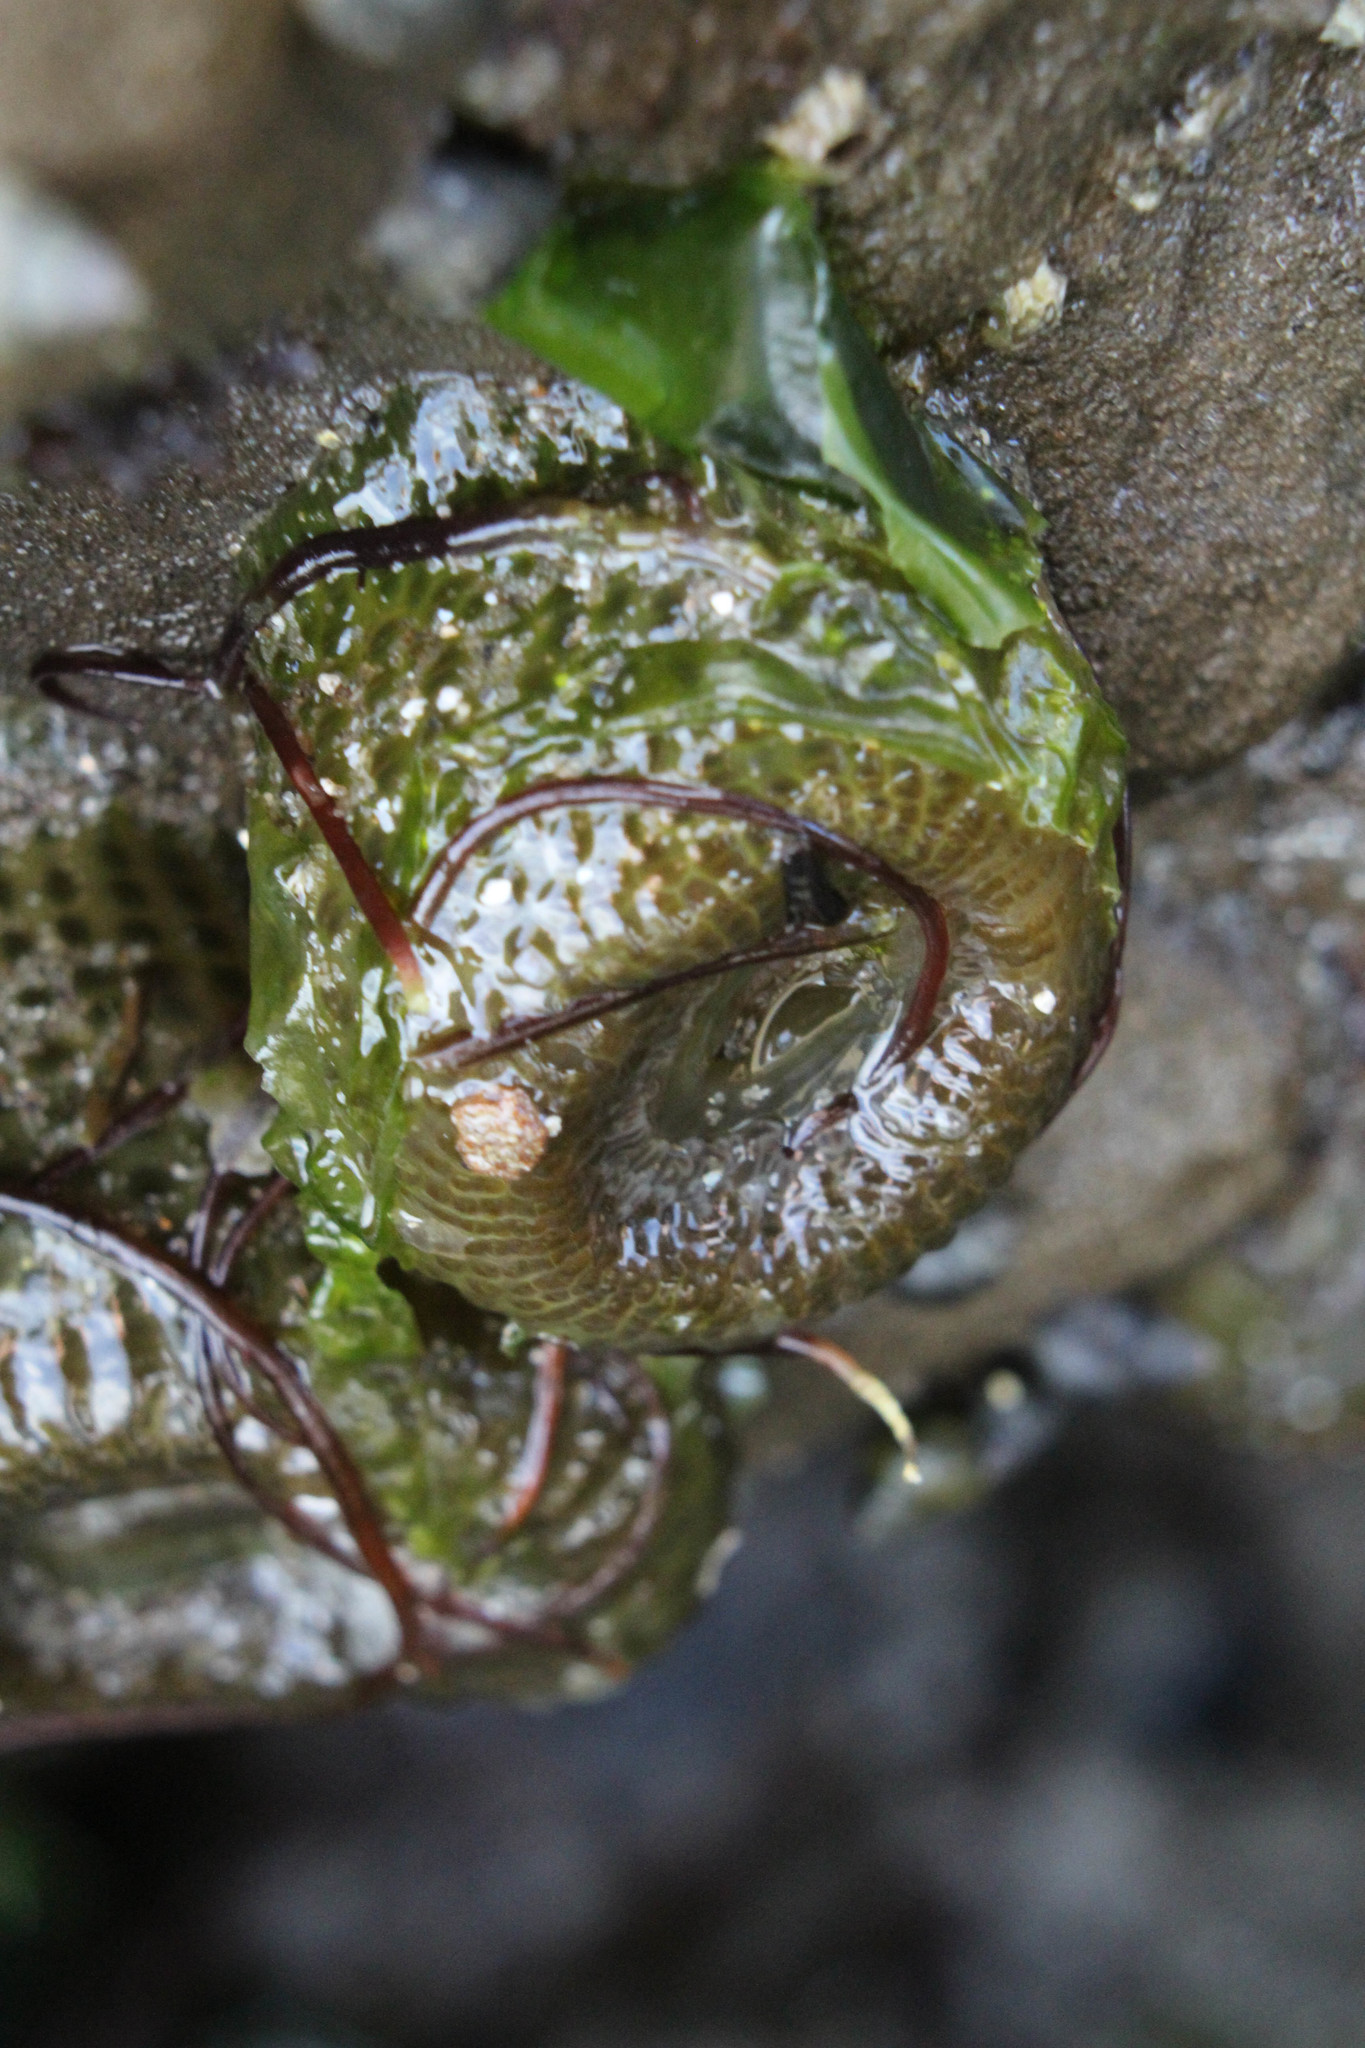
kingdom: Animalia
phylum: Cnidaria
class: Anthozoa
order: Actiniaria
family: Actiniidae
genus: Anthopleura
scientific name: Anthopleura elegantissima
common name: Clonal anemone
